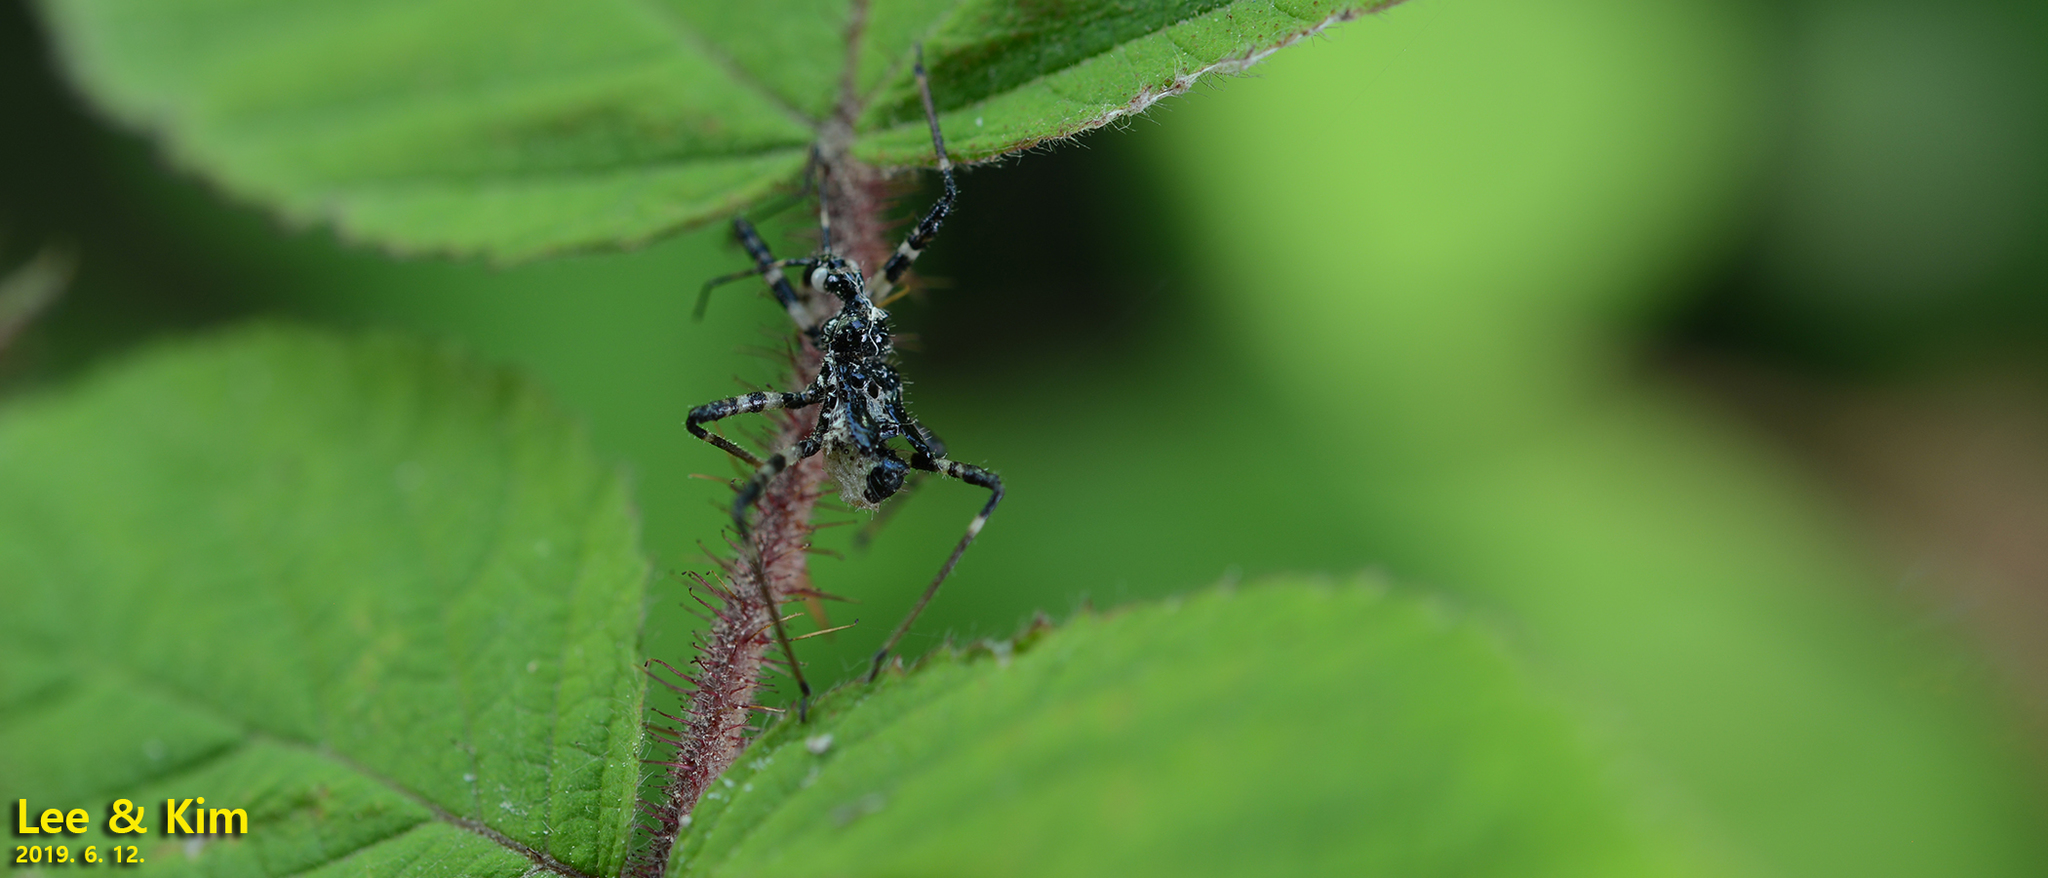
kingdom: Animalia
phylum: Arthropoda
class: Insecta
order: Hemiptera
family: Reduviidae
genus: Sphedanolestes
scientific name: Sphedanolestes impressicollis
